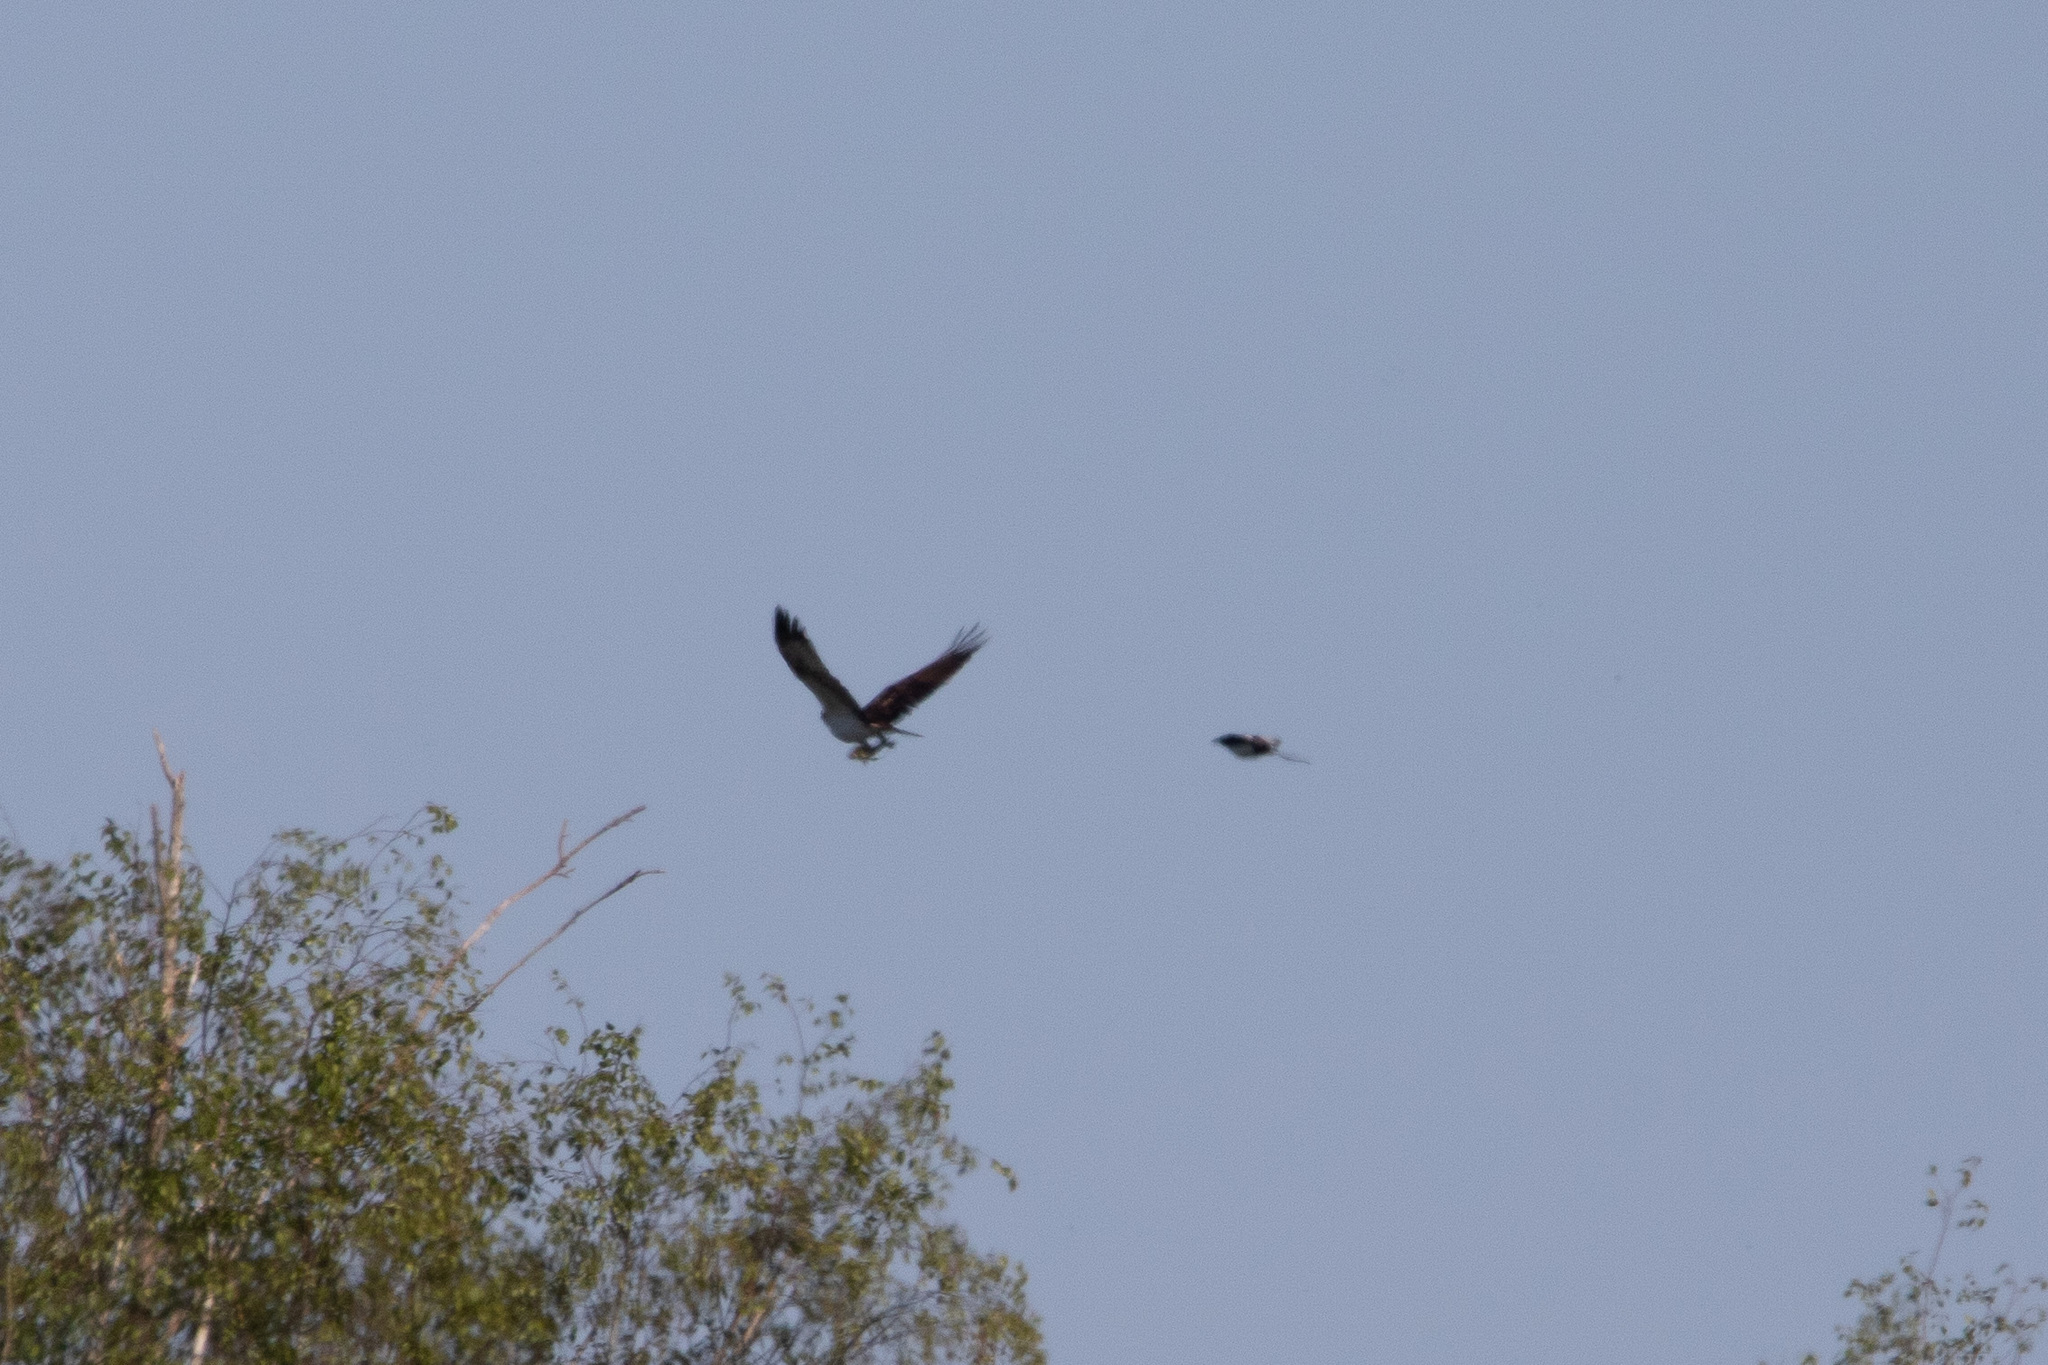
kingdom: Animalia
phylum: Chordata
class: Aves
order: Accipitriformes
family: Pandionidae
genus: Pandion
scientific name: Pandion haliaetus
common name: Osprey
